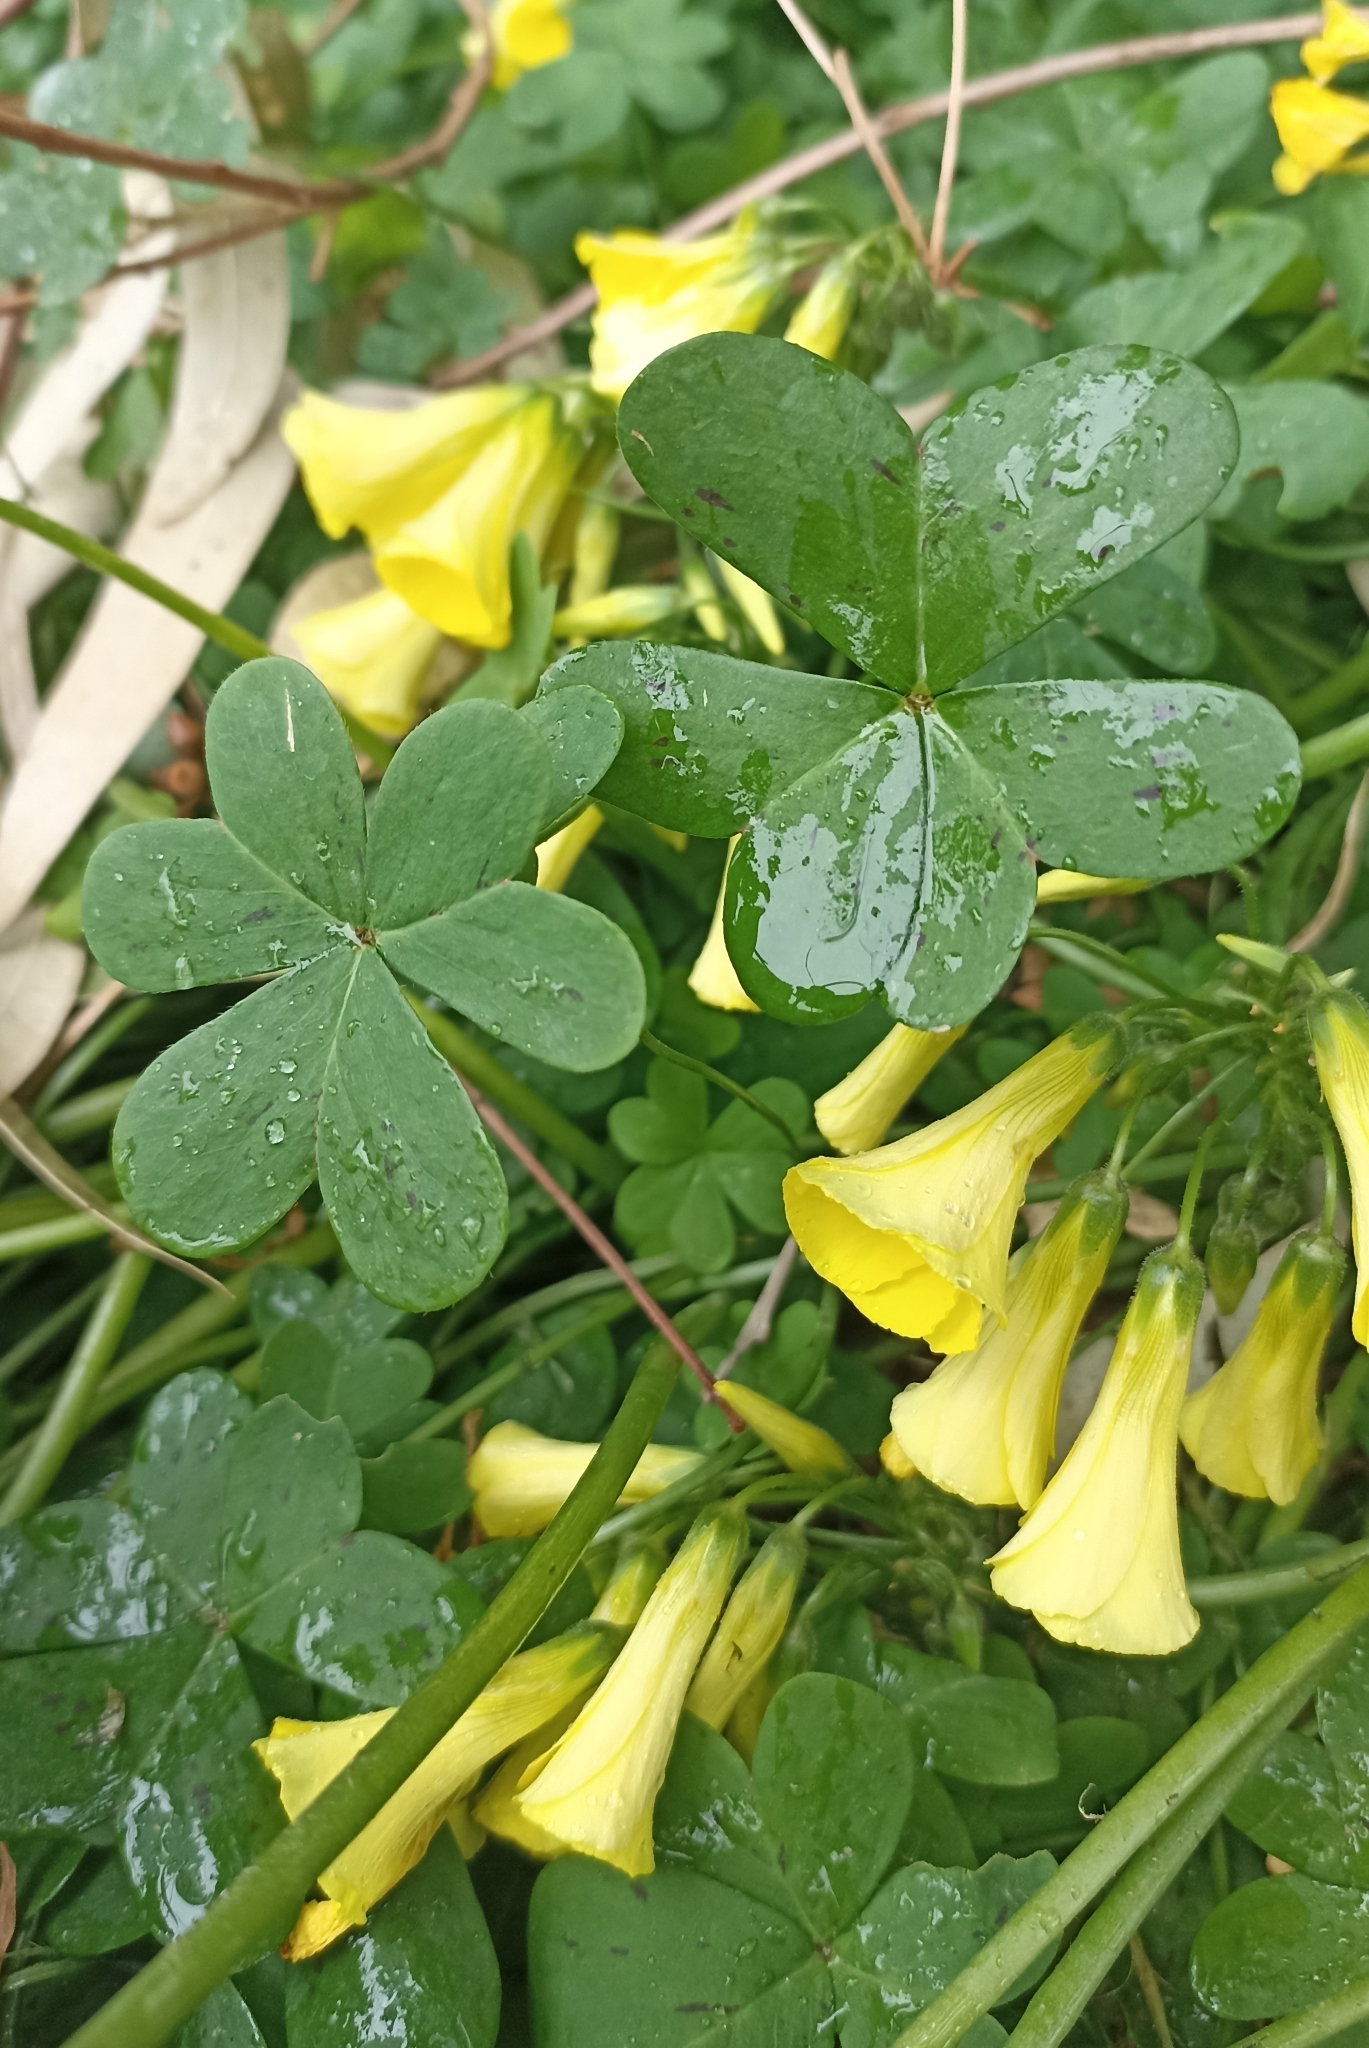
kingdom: Plantae
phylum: Tracheophyta
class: Magnoliopsida
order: Oxalidales
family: Oxalidaceae
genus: Oxalis
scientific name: Oxalis pes-caprae
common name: Bermuda-buttercup
